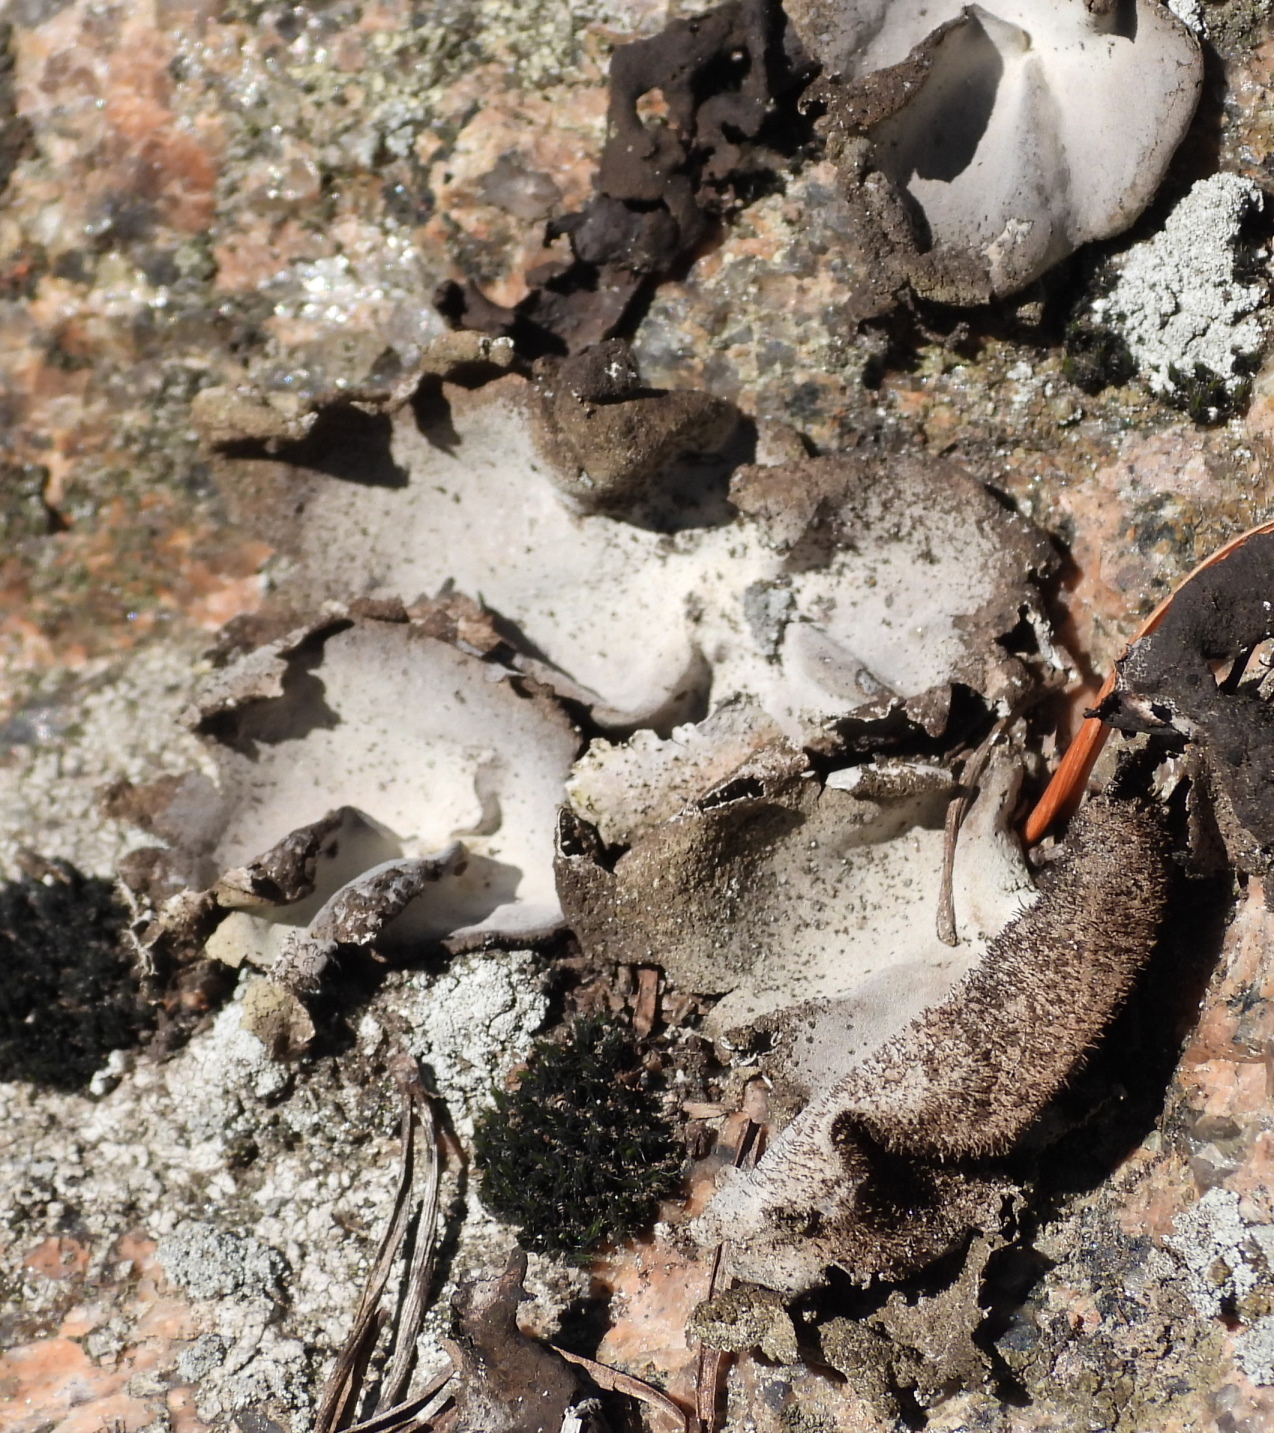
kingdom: Fungi
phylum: Ascomycota
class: Lecanoromycetes
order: Umbilicariales
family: Umbilicariaceae
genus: Umbilicaria
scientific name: Umbilicaria hirsuta
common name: Granulating rocktripe lichen
